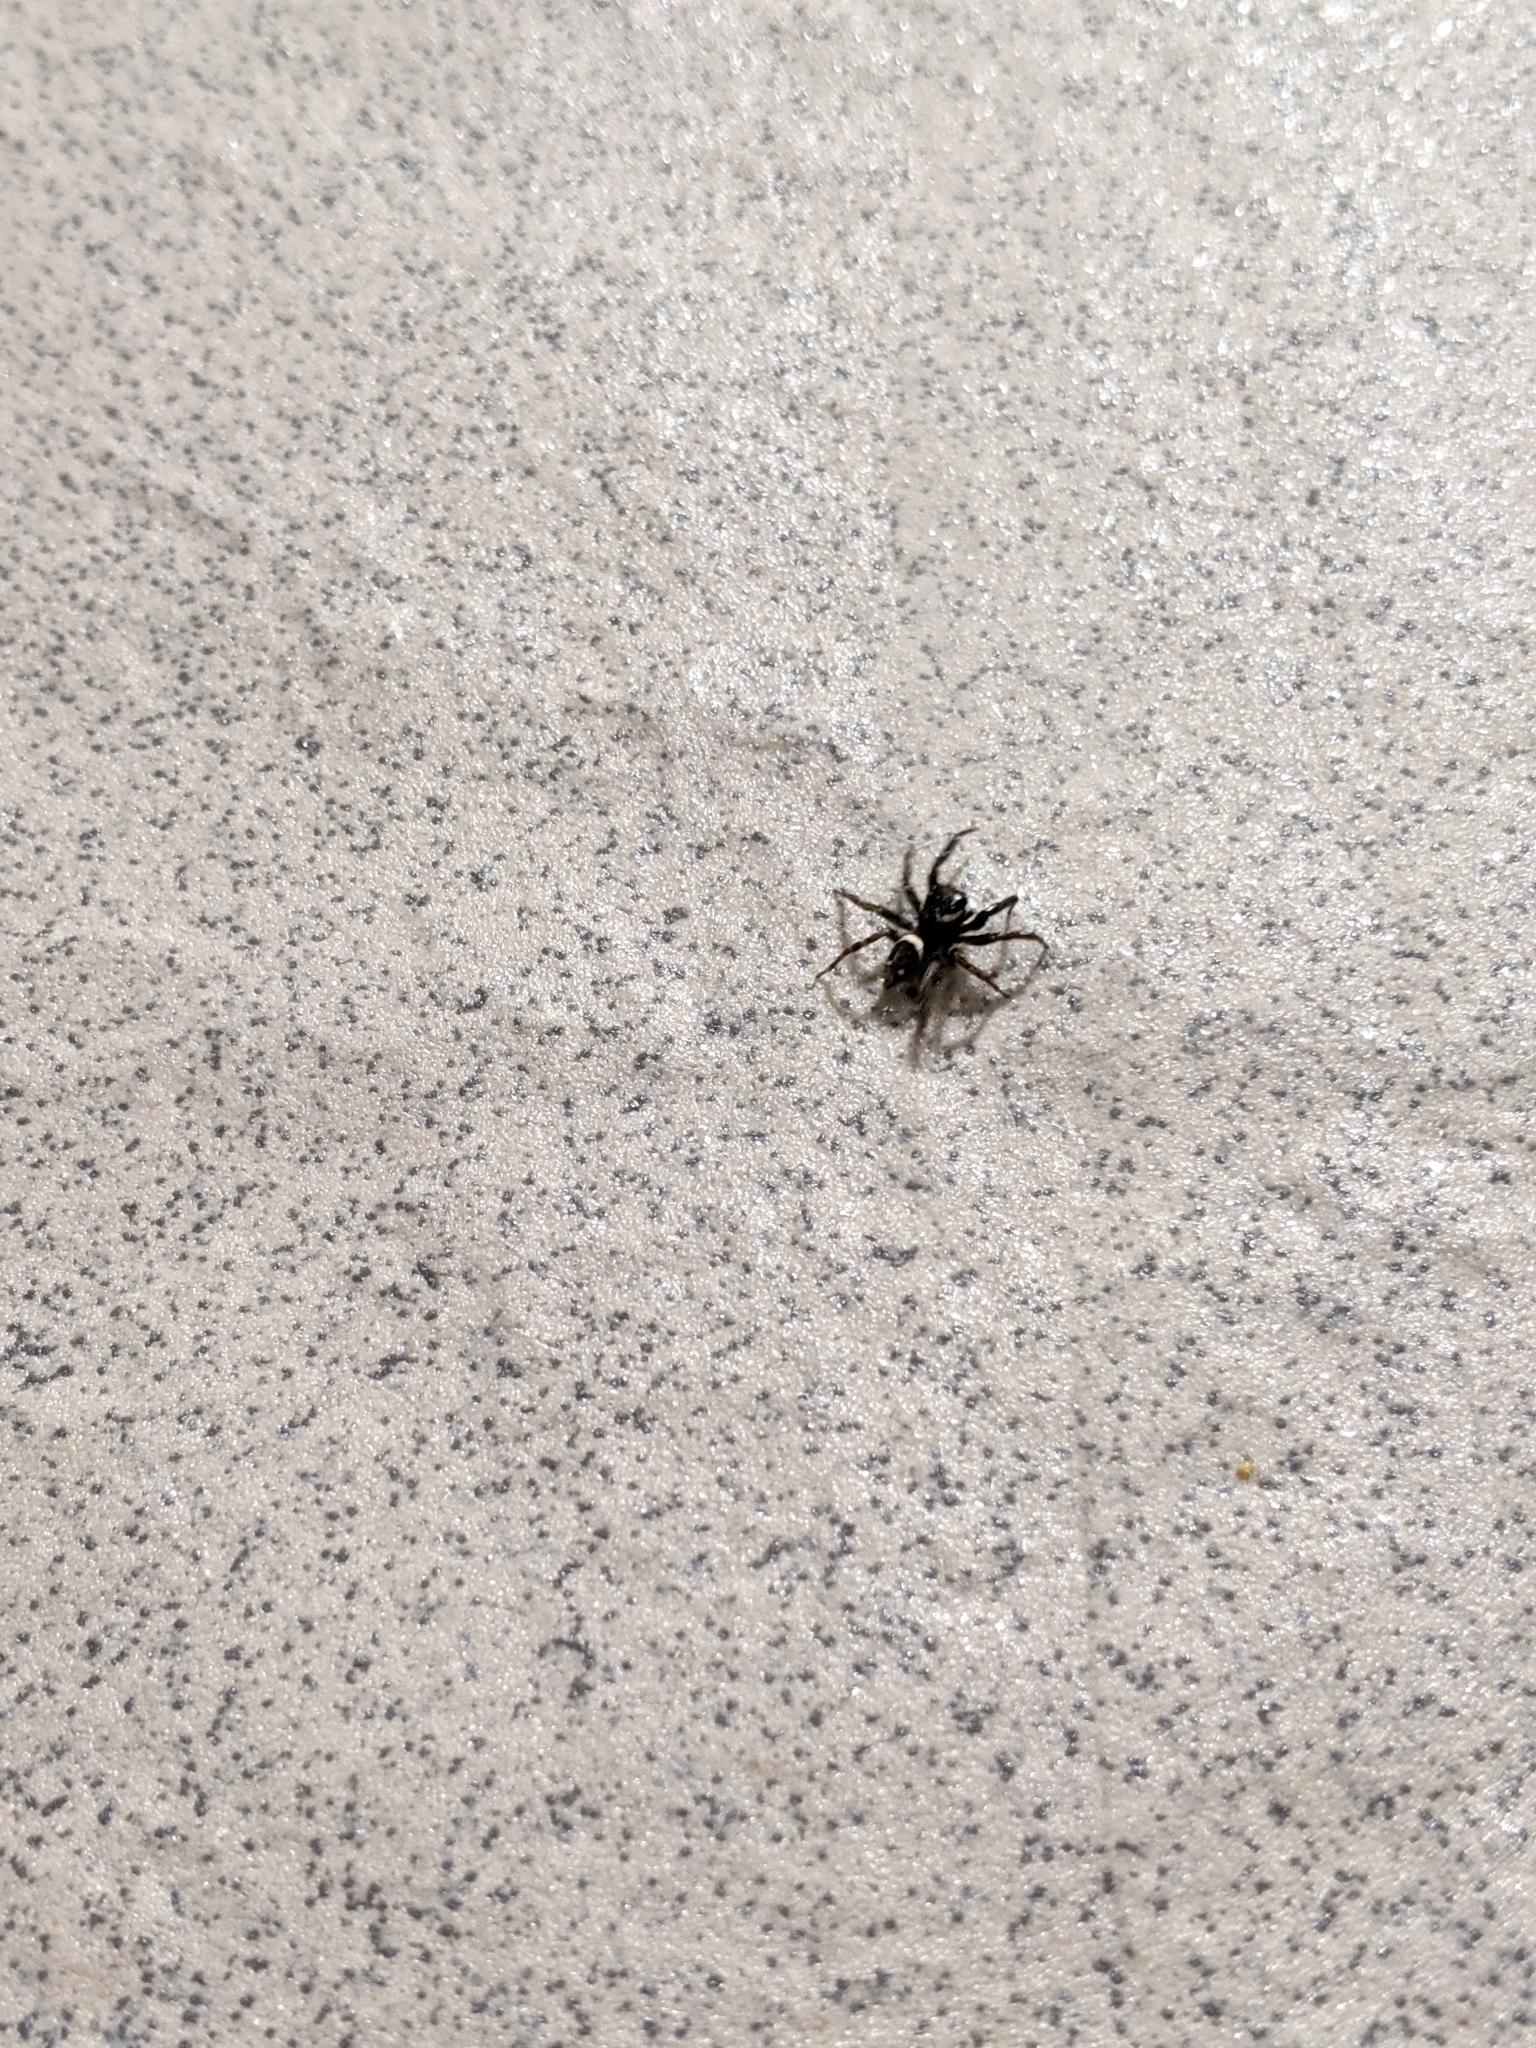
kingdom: Animalia
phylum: Arthropoda
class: Arachnida
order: Araneae
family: Salticidae
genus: Hasarius
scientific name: Hasarius adansoni
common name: Jumping spider
